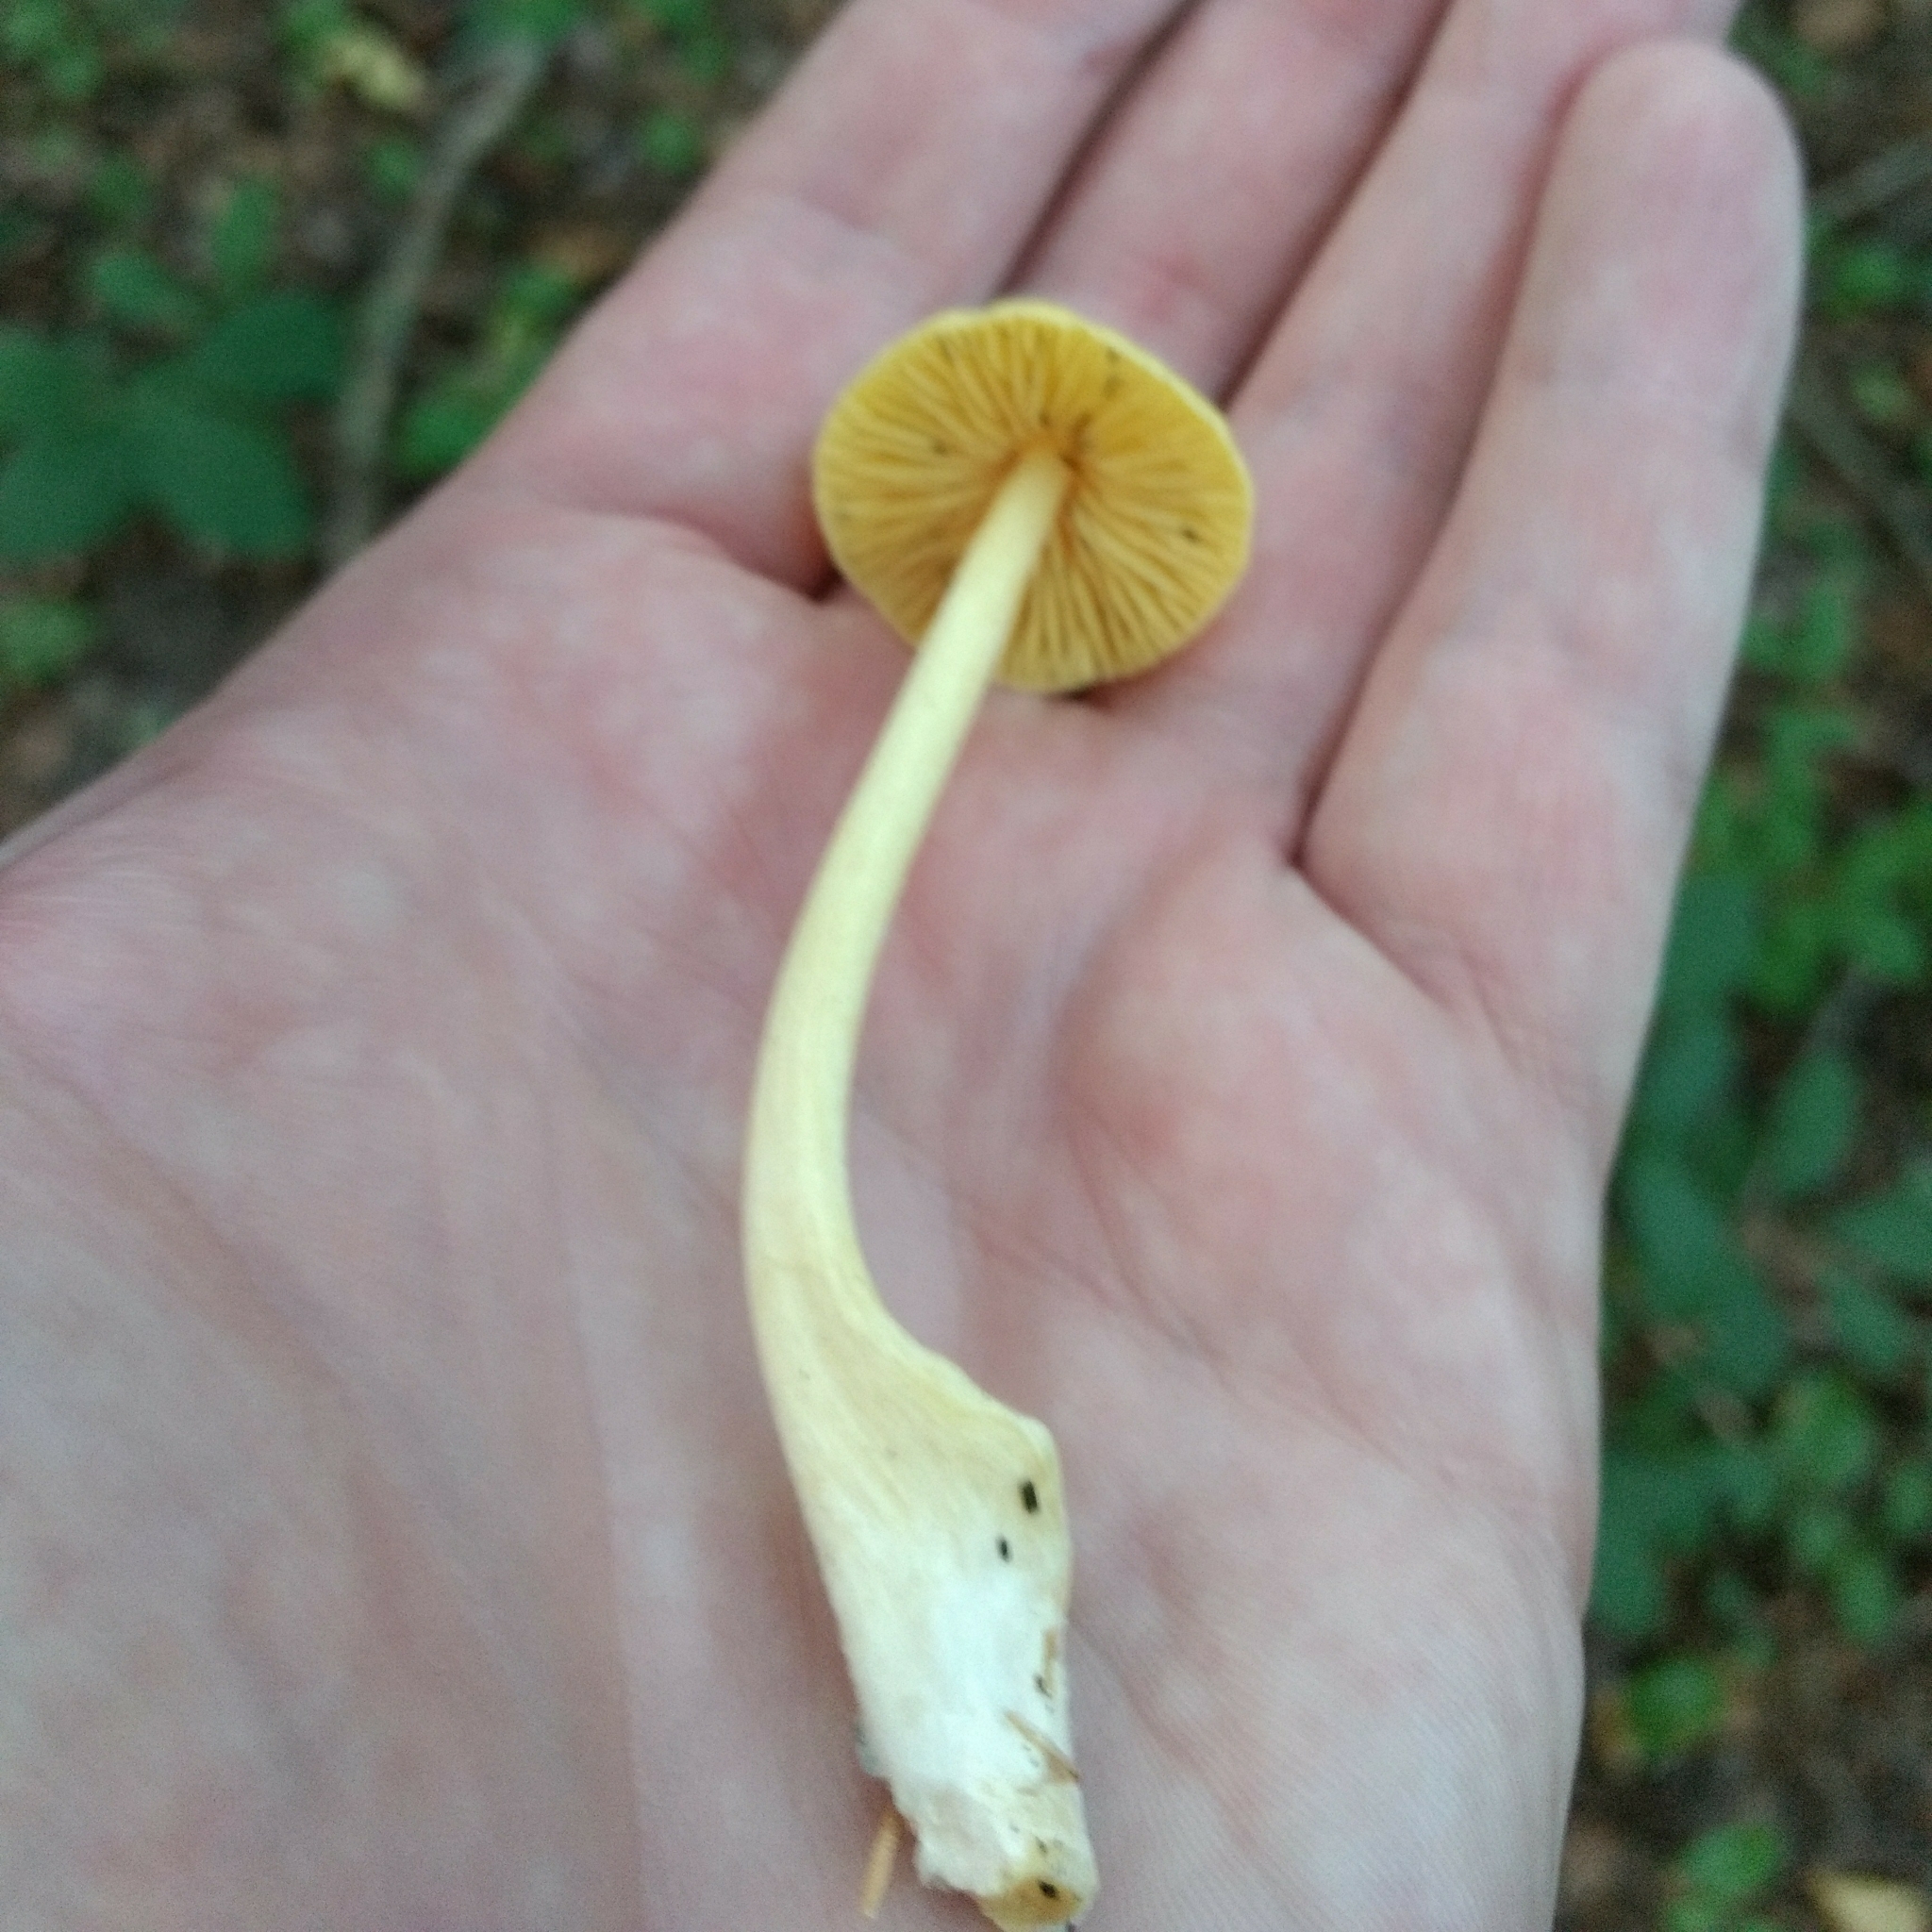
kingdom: Fungi
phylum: Basidiomycota
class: Agaricomycetes
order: Agaricales
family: Entolomataceae
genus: Entoloma
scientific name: Entoloma murrayi
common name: Yellow unicorn entoloma
